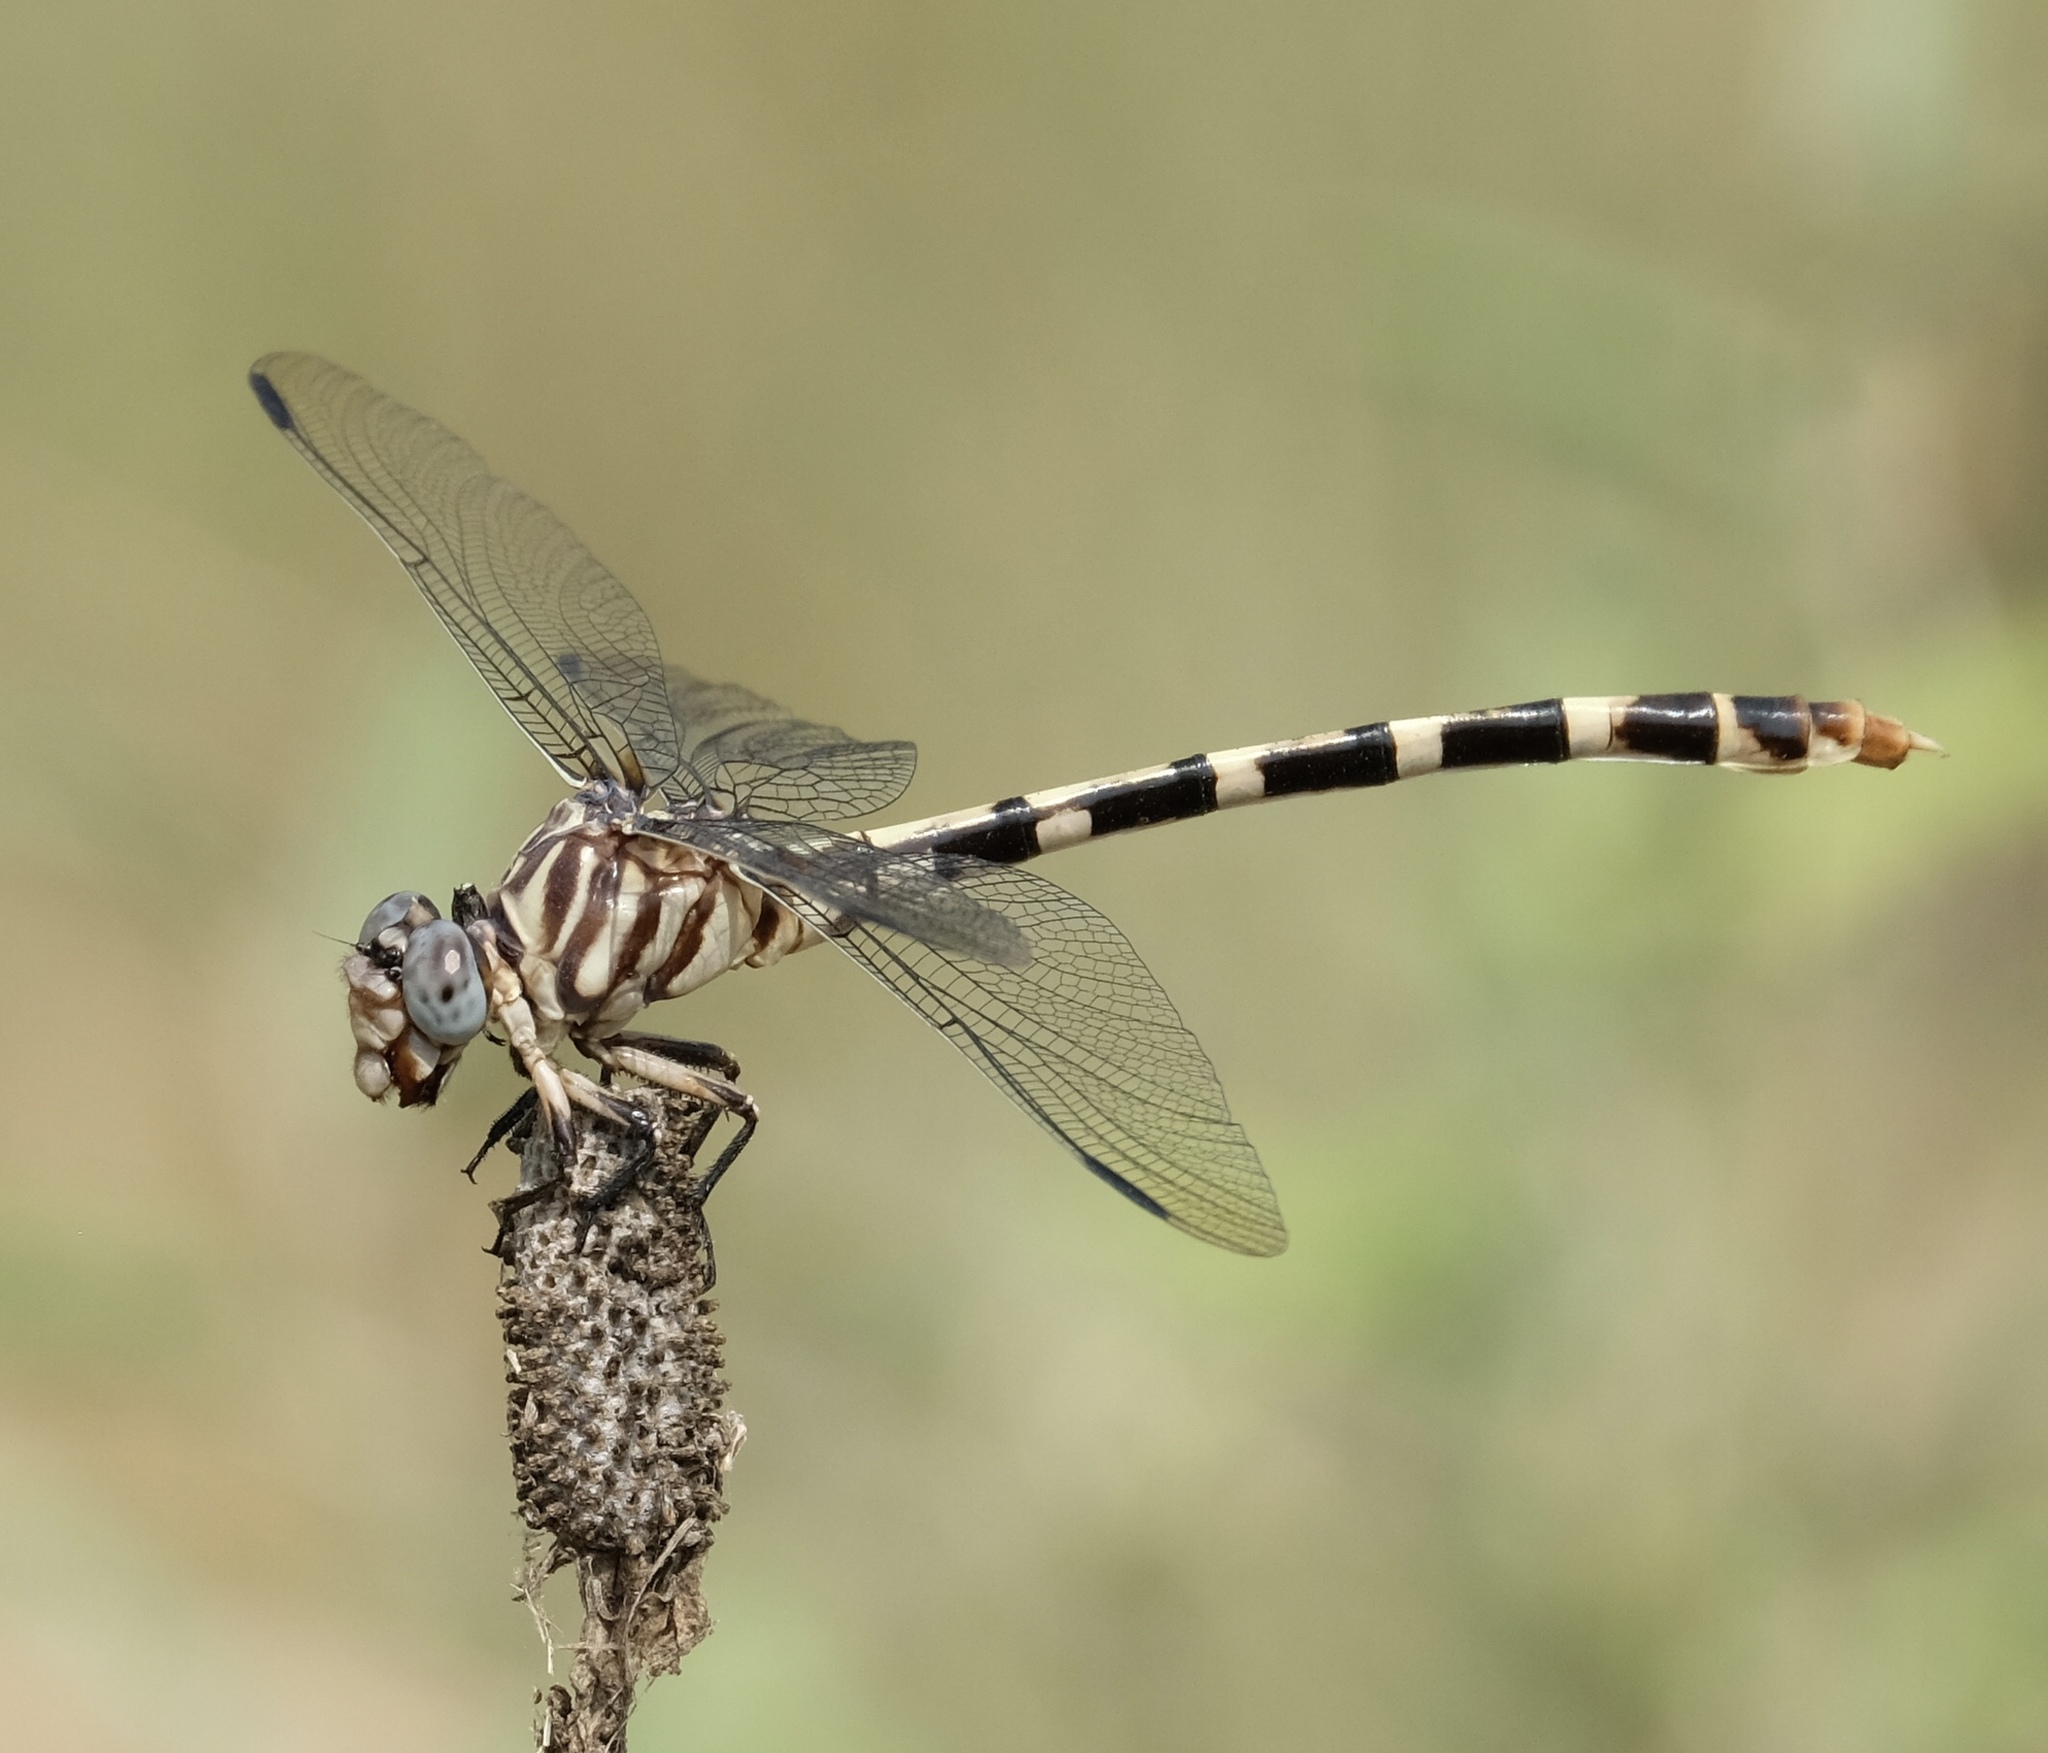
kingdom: Animalia
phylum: Arthropoda
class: Insecta
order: Odonata
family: Gomphidae
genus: Phyllogomphoides
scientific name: Phyllogomphoides stigmatus
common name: Four-striped leaftail
